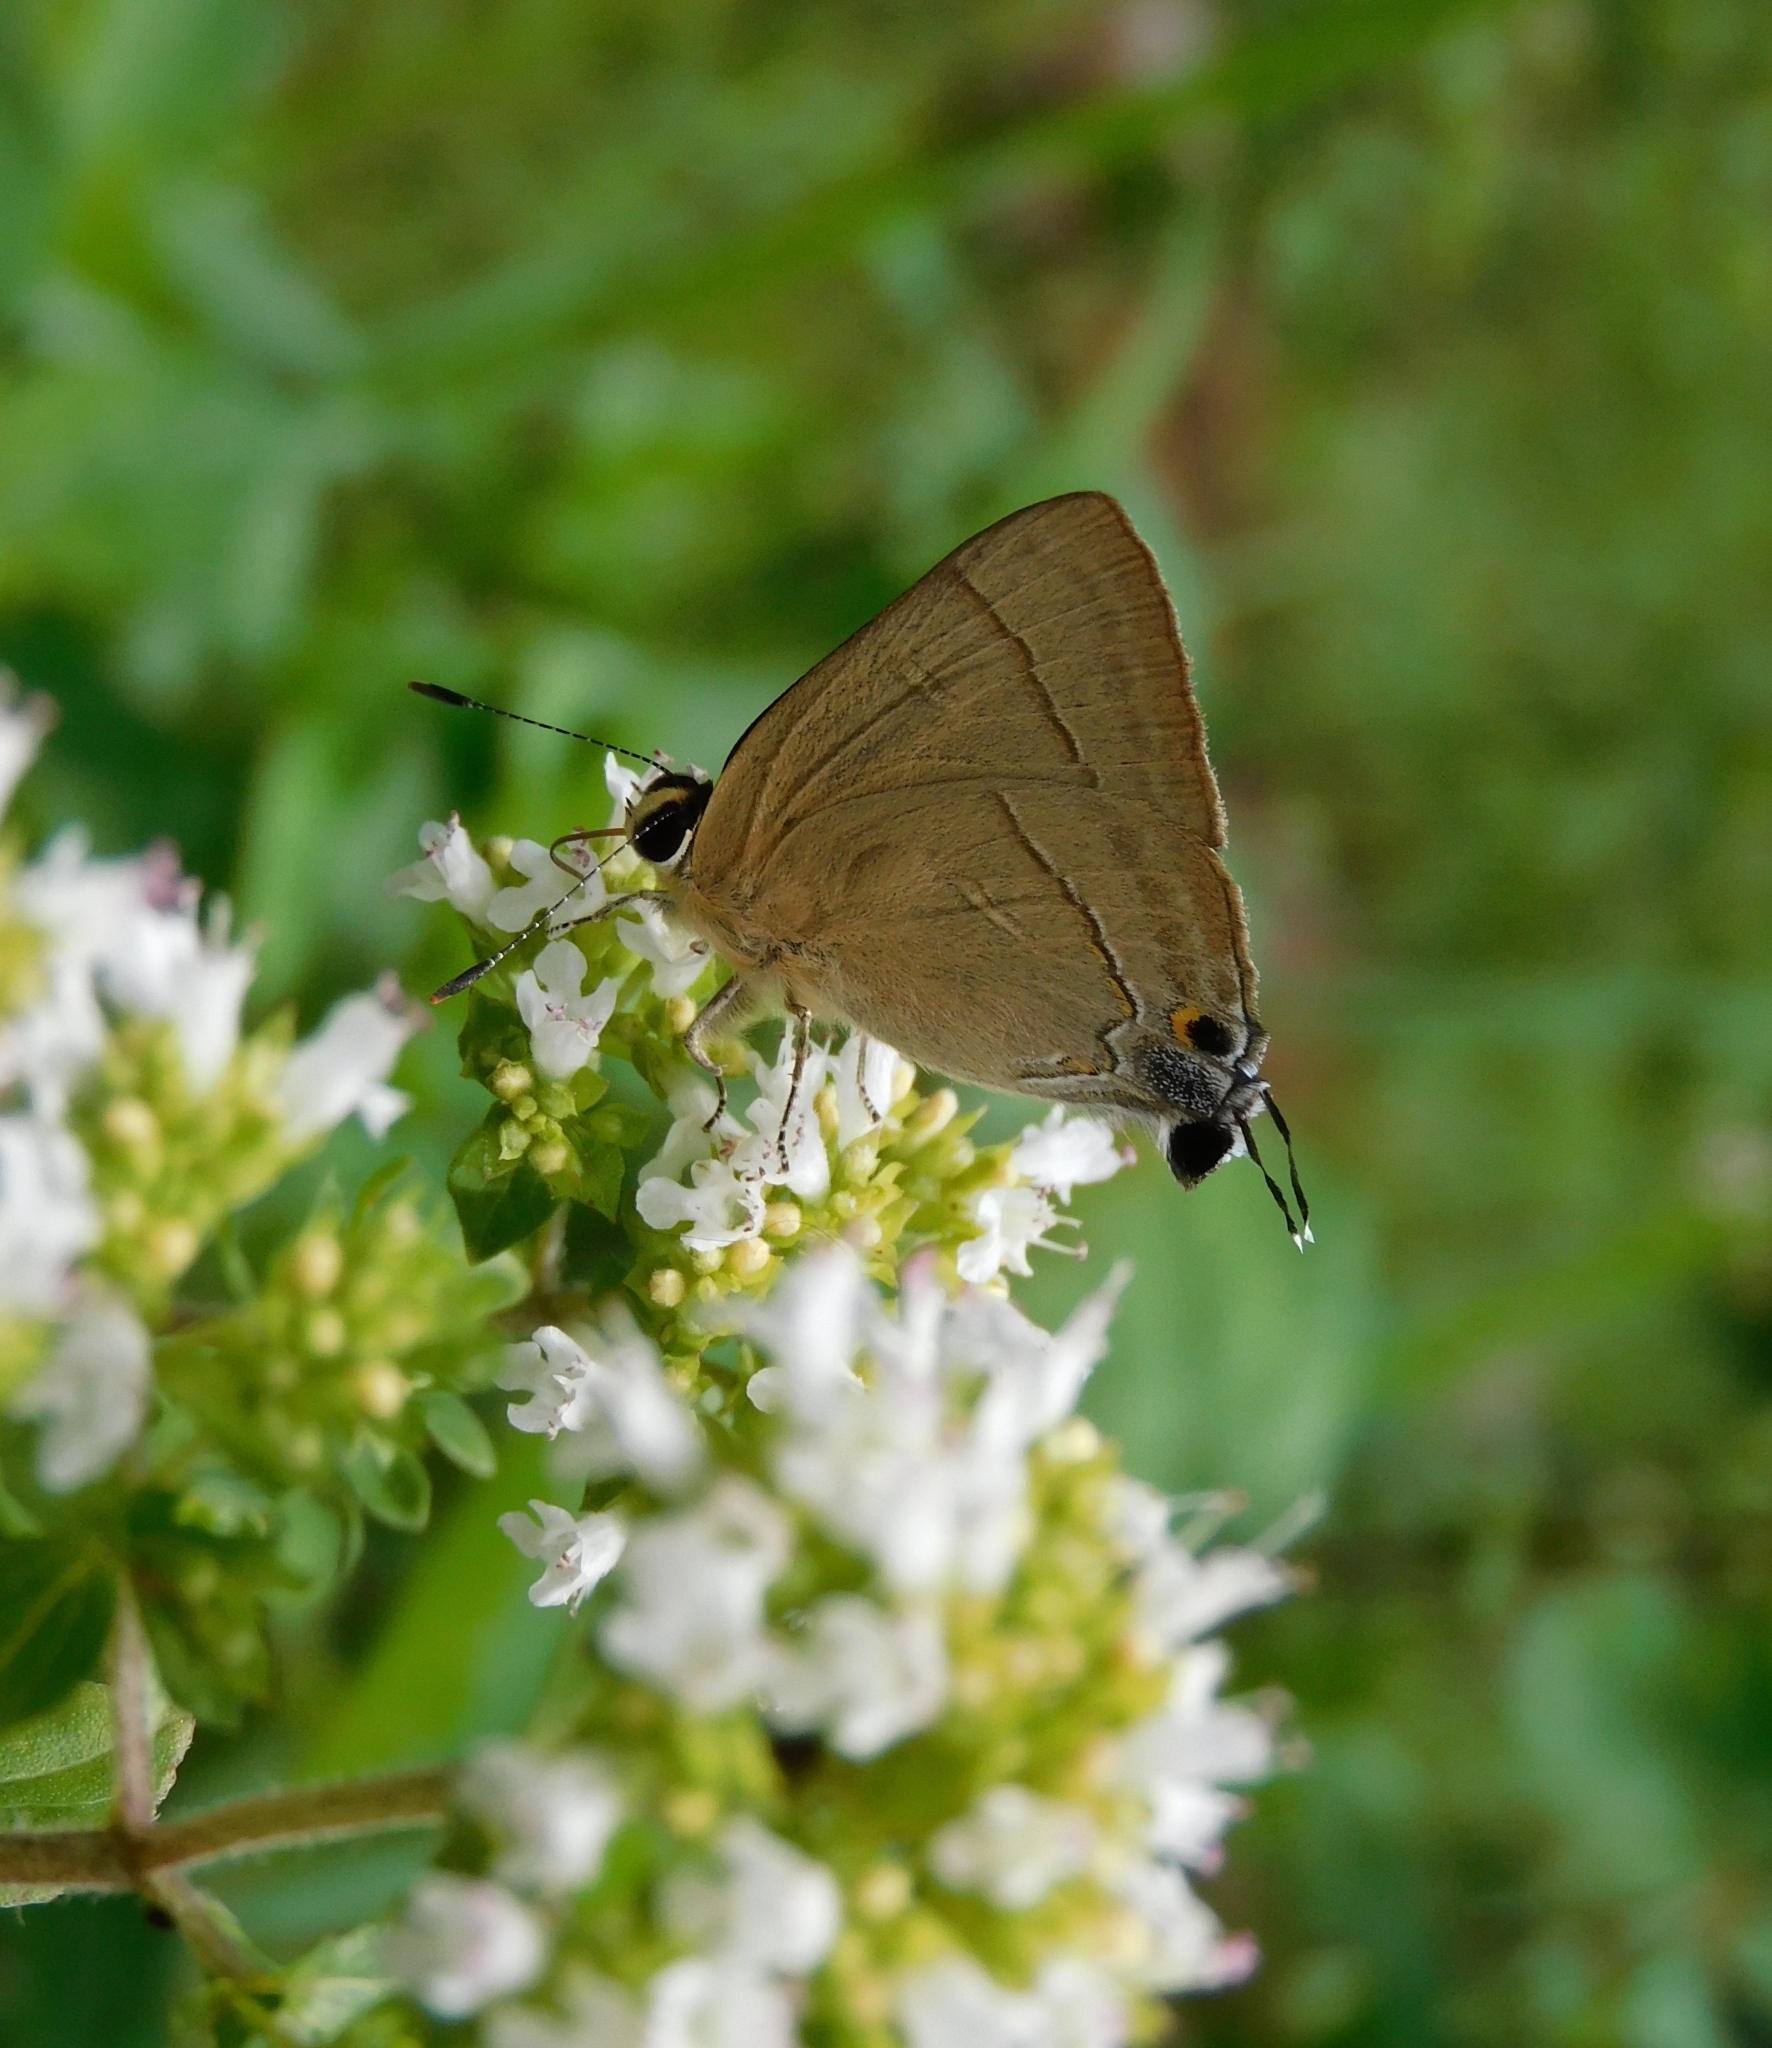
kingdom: Animalia
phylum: Arthropoda
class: Insecta
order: Lepidoptera
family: Lycaenidae
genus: Rapala
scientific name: Rapala nissa
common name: Common flash
